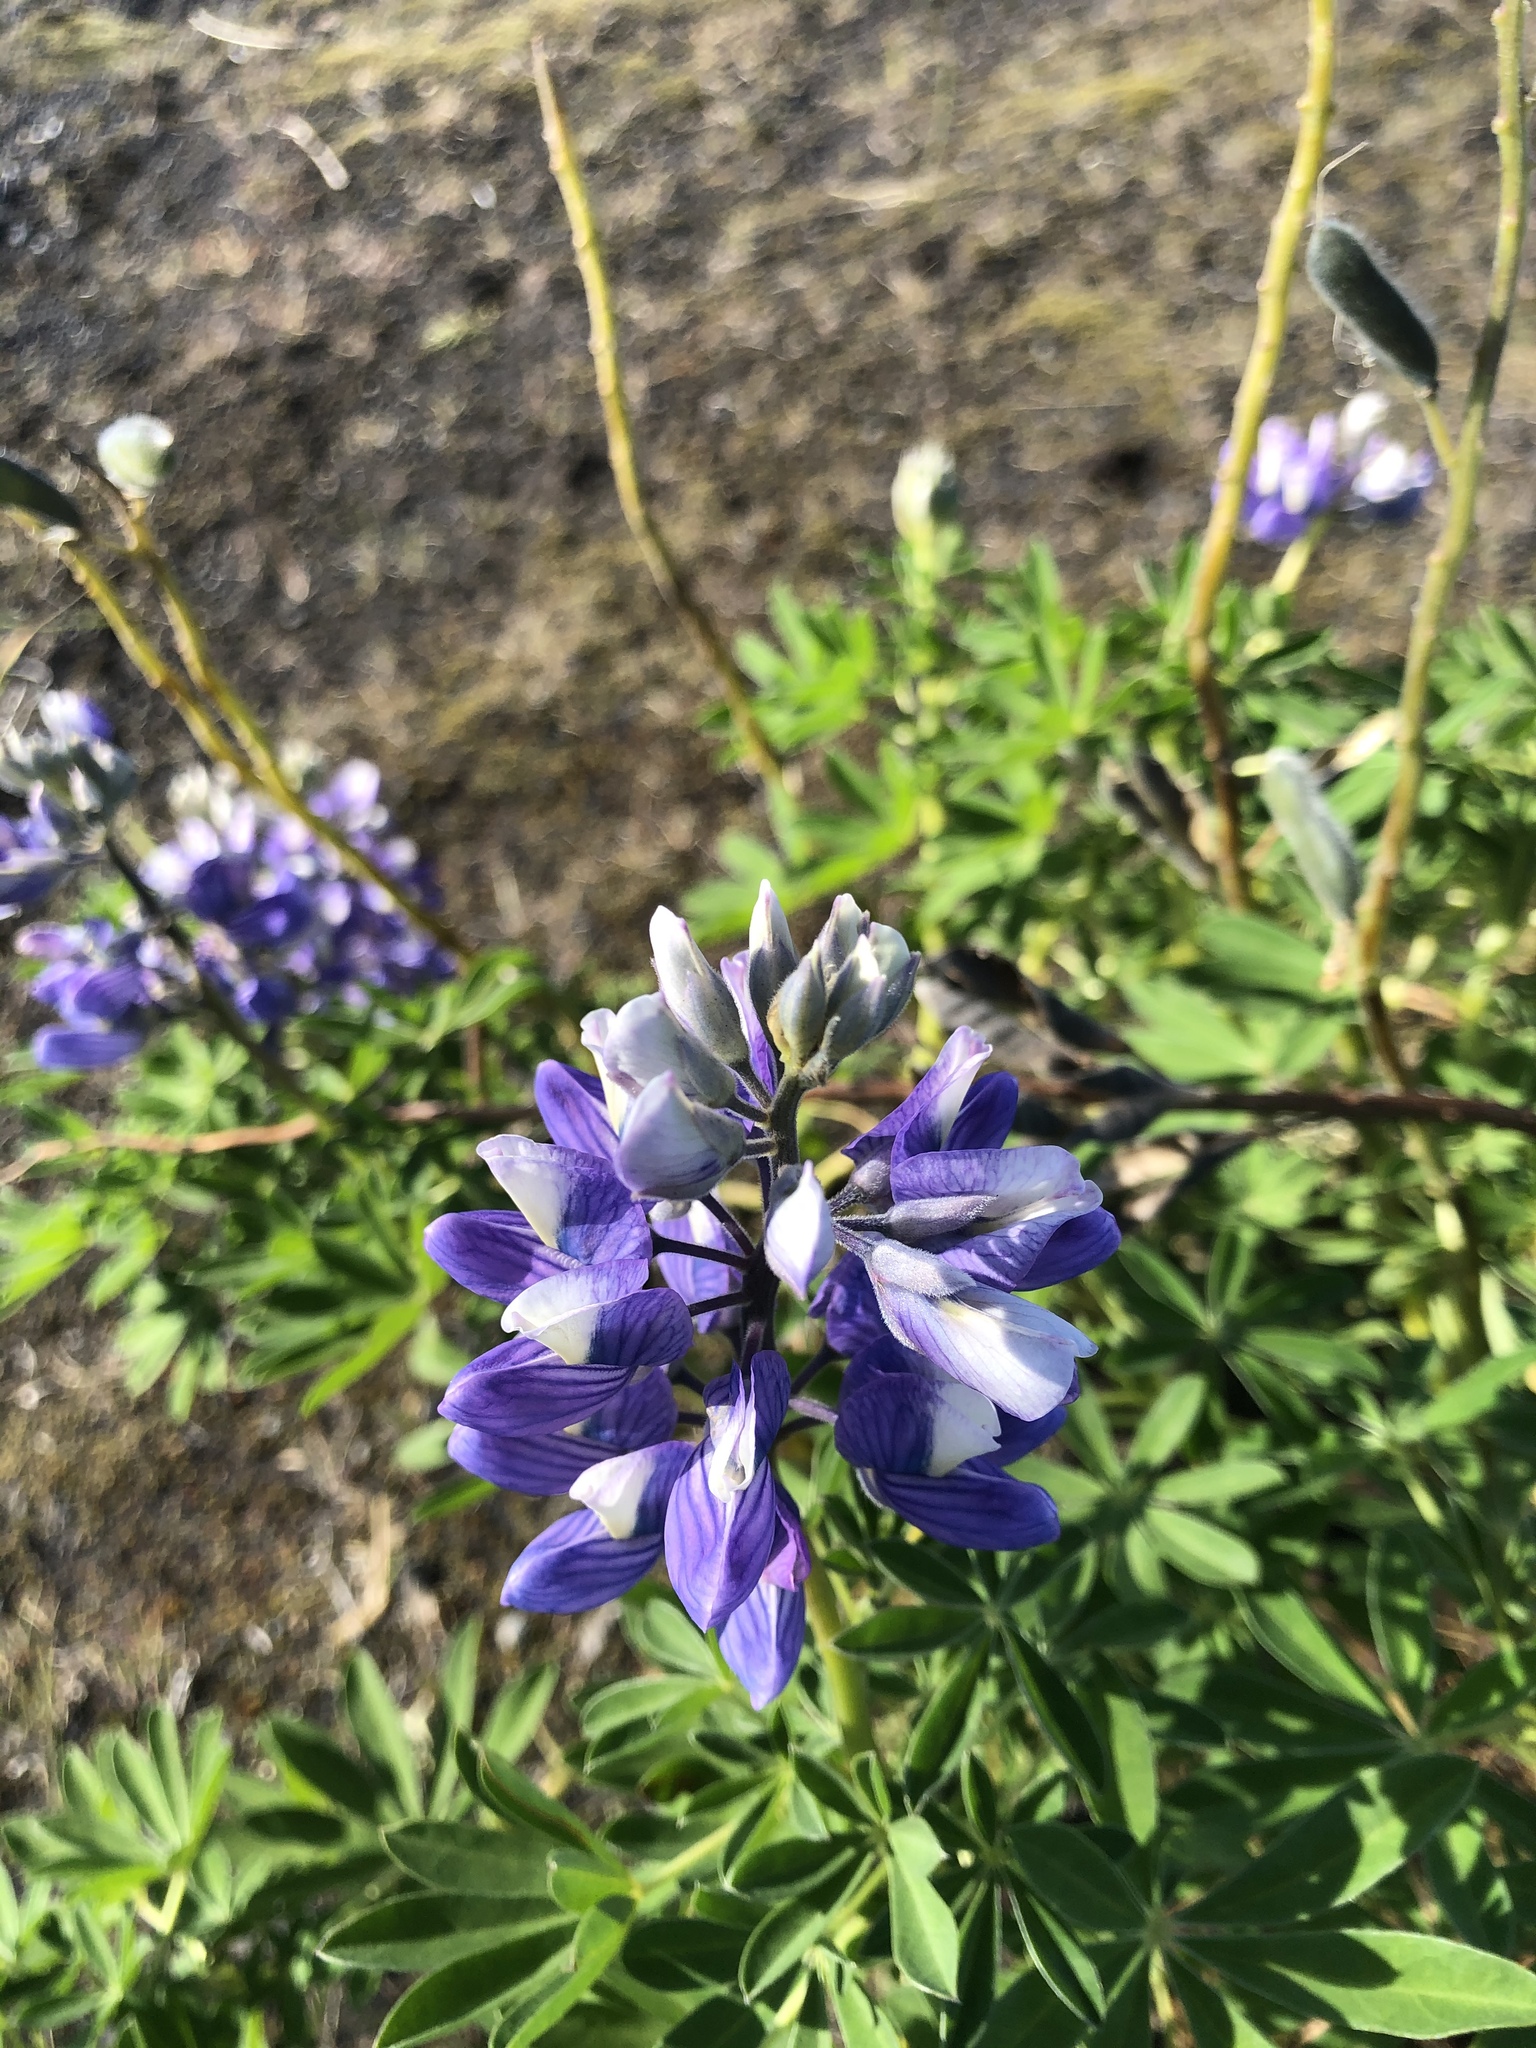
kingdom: Plantae
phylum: Tracheophyta
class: Magnoliopsida
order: Fabales
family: Fabaceae
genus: Lupinus
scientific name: Lupinus nootkatensis
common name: Nootka lupine
